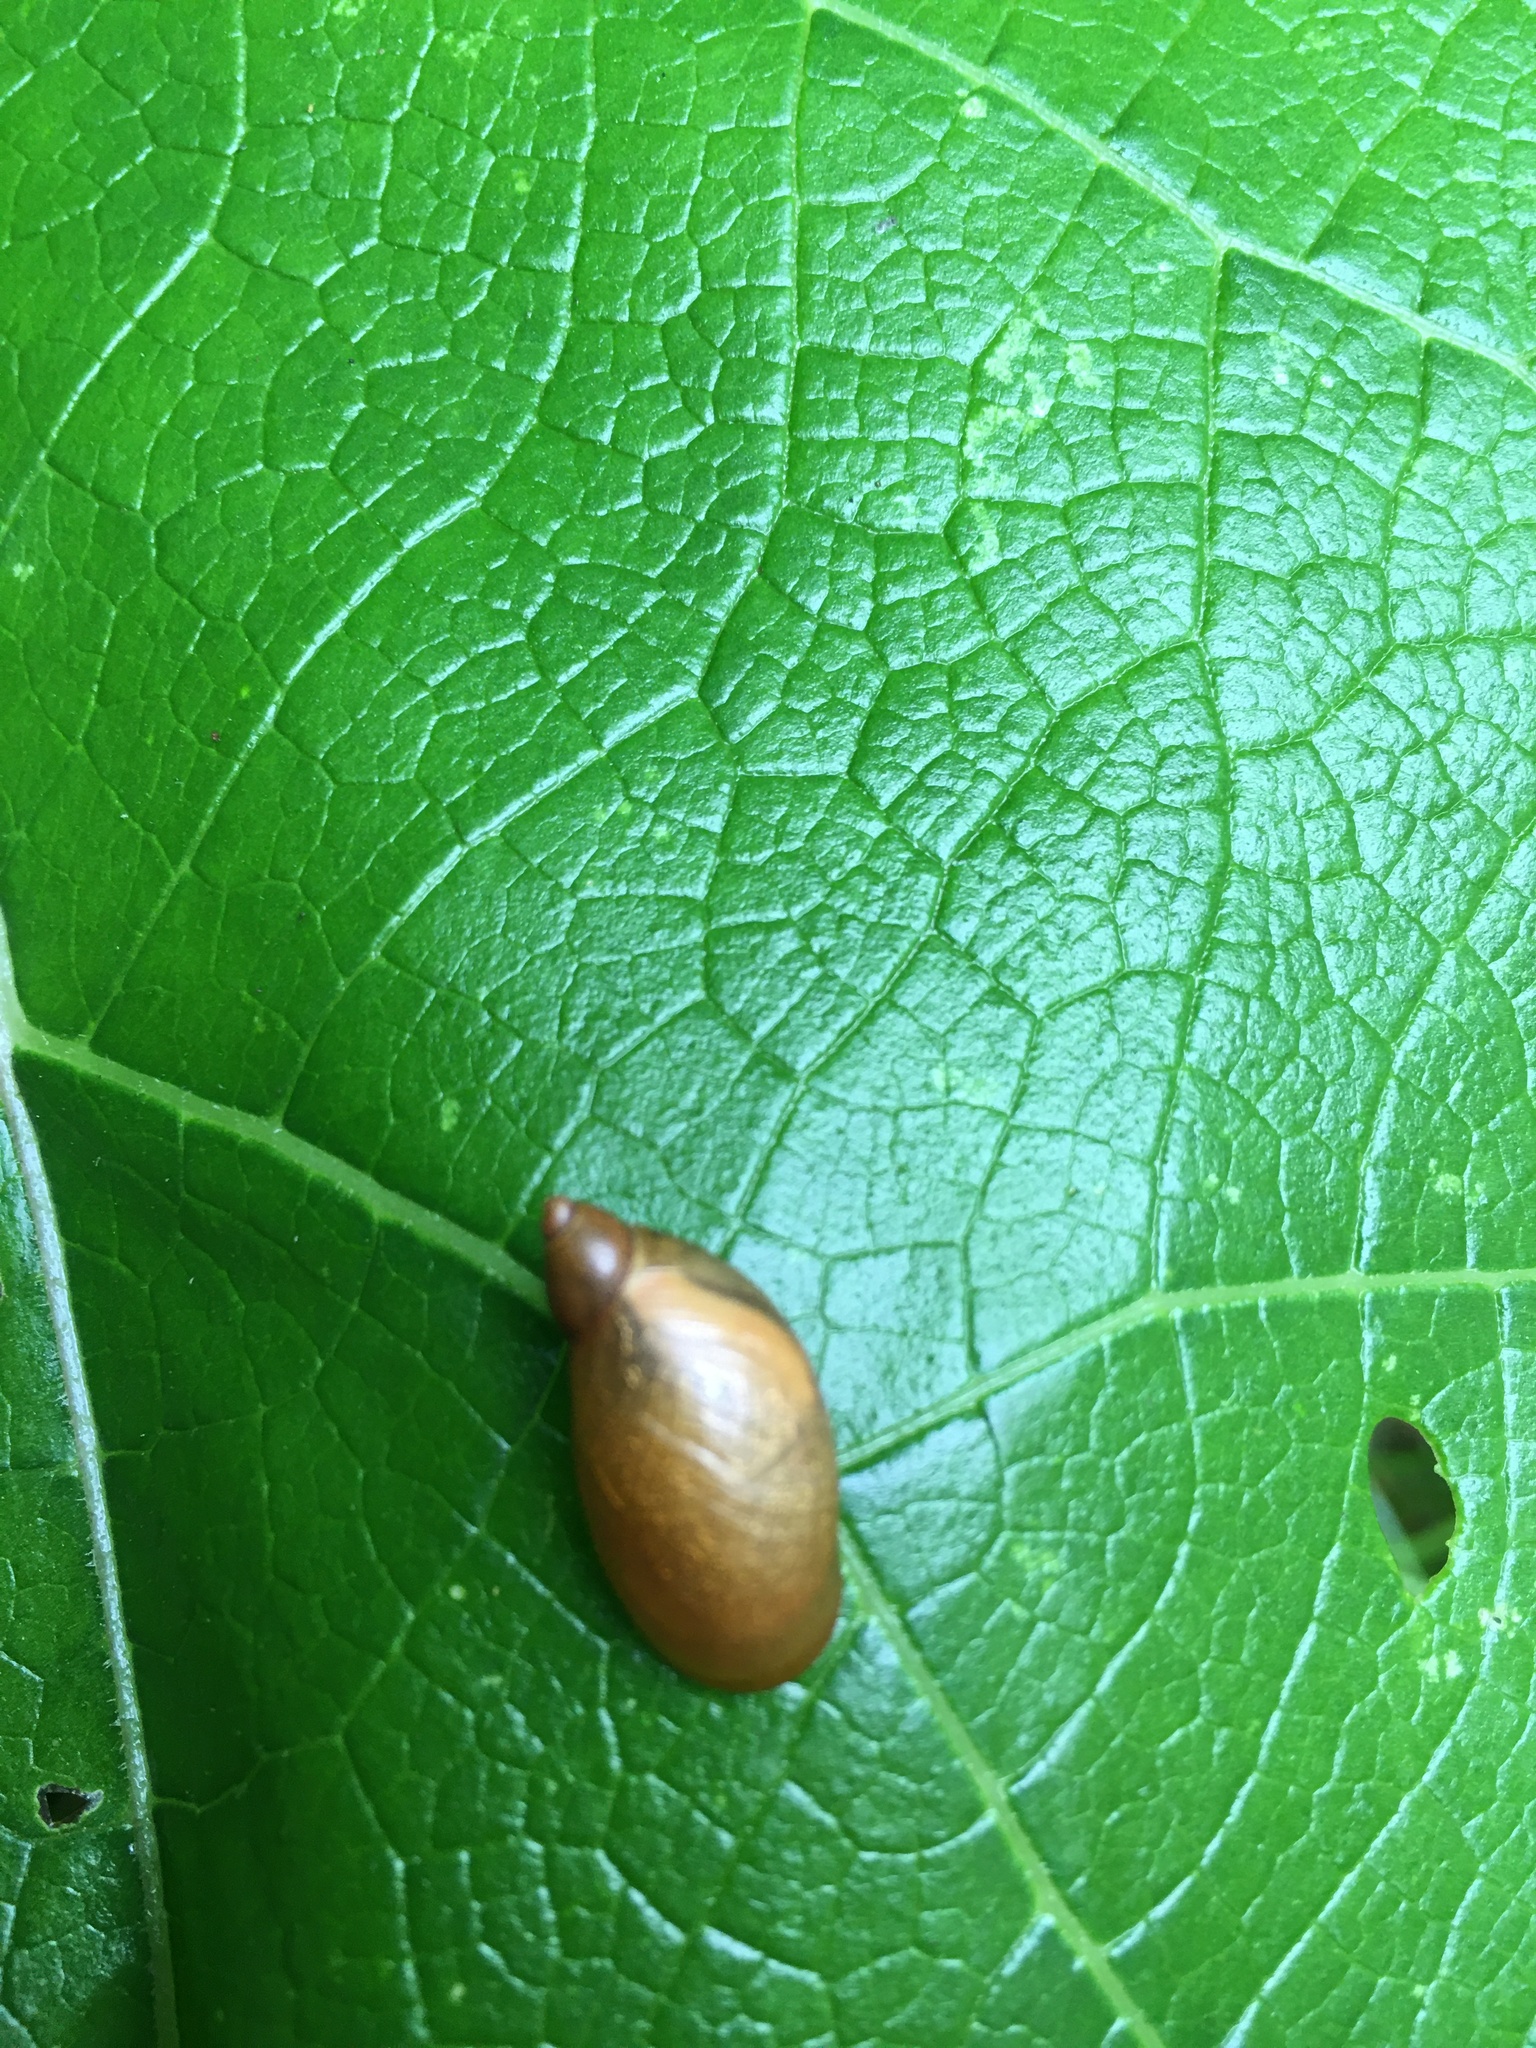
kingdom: Animalia
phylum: Mollusca
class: Gastropoda
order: Stylommatophora
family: Succineidae
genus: Succinea
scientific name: Succinea putris
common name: European ambersnail
